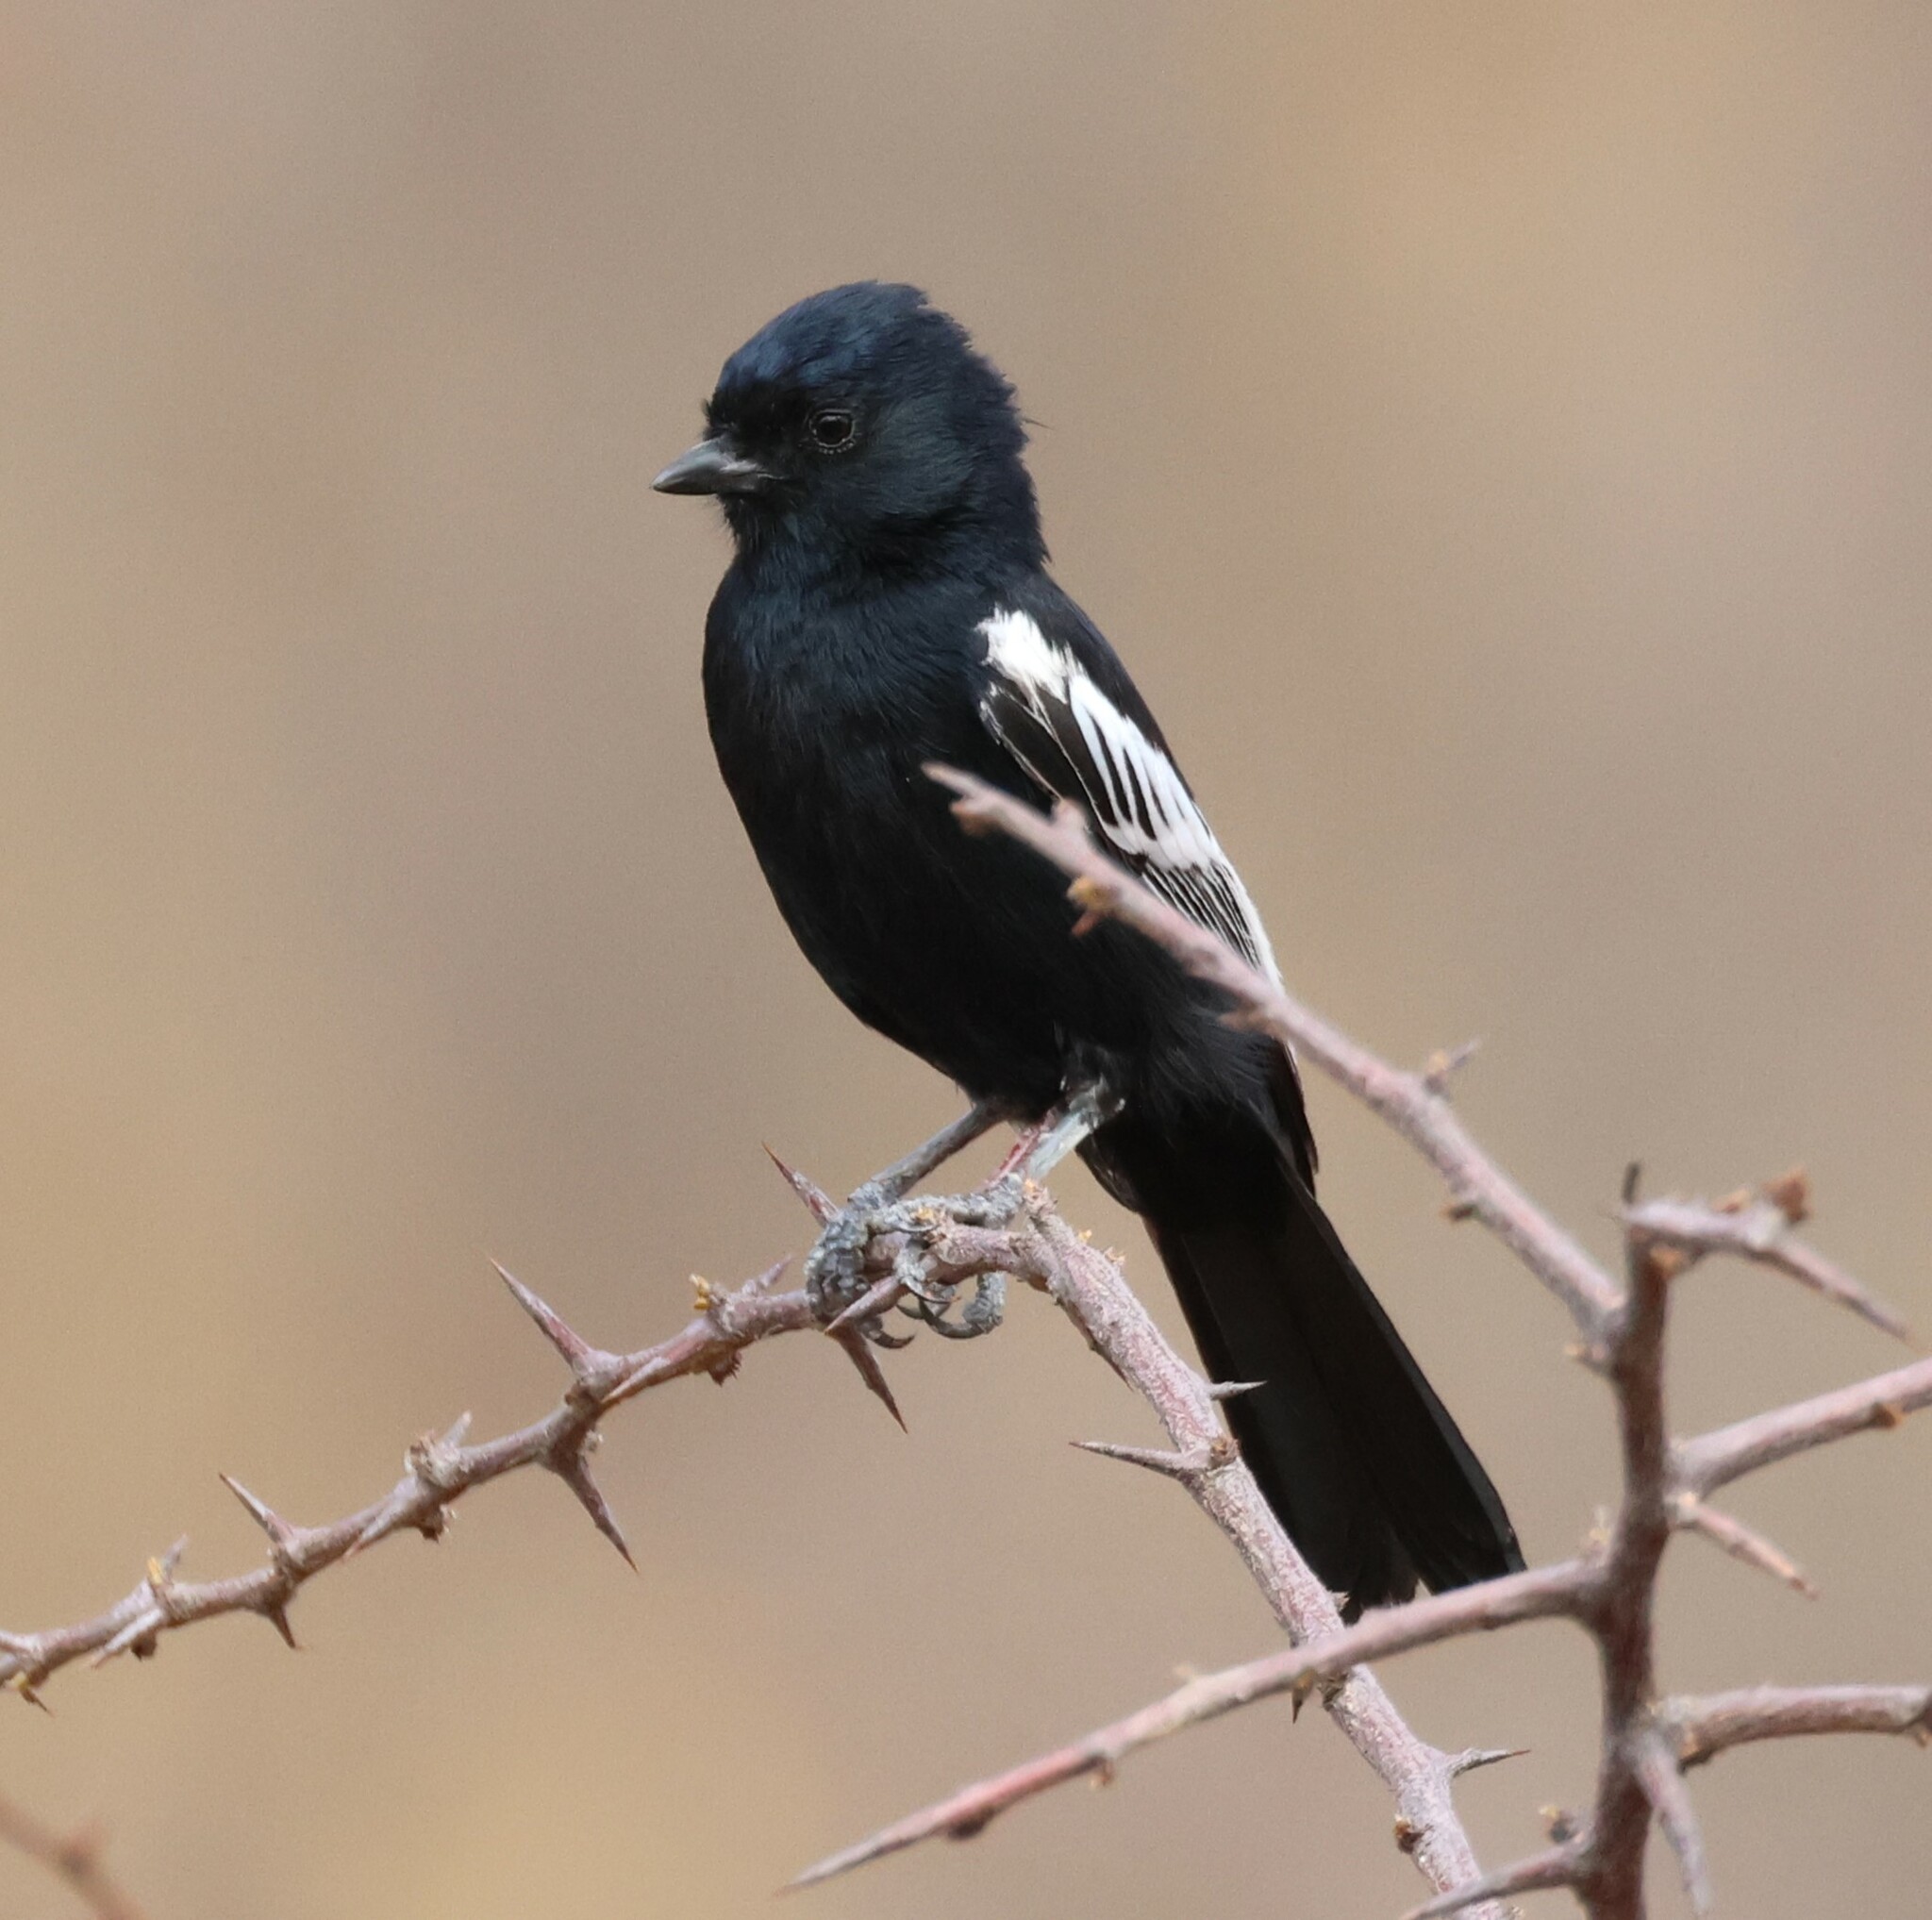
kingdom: Animalia
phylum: Chordata
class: Aves
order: Passeriformes
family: Paridae
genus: Parus
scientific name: Parus carpi
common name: Carp's tit
